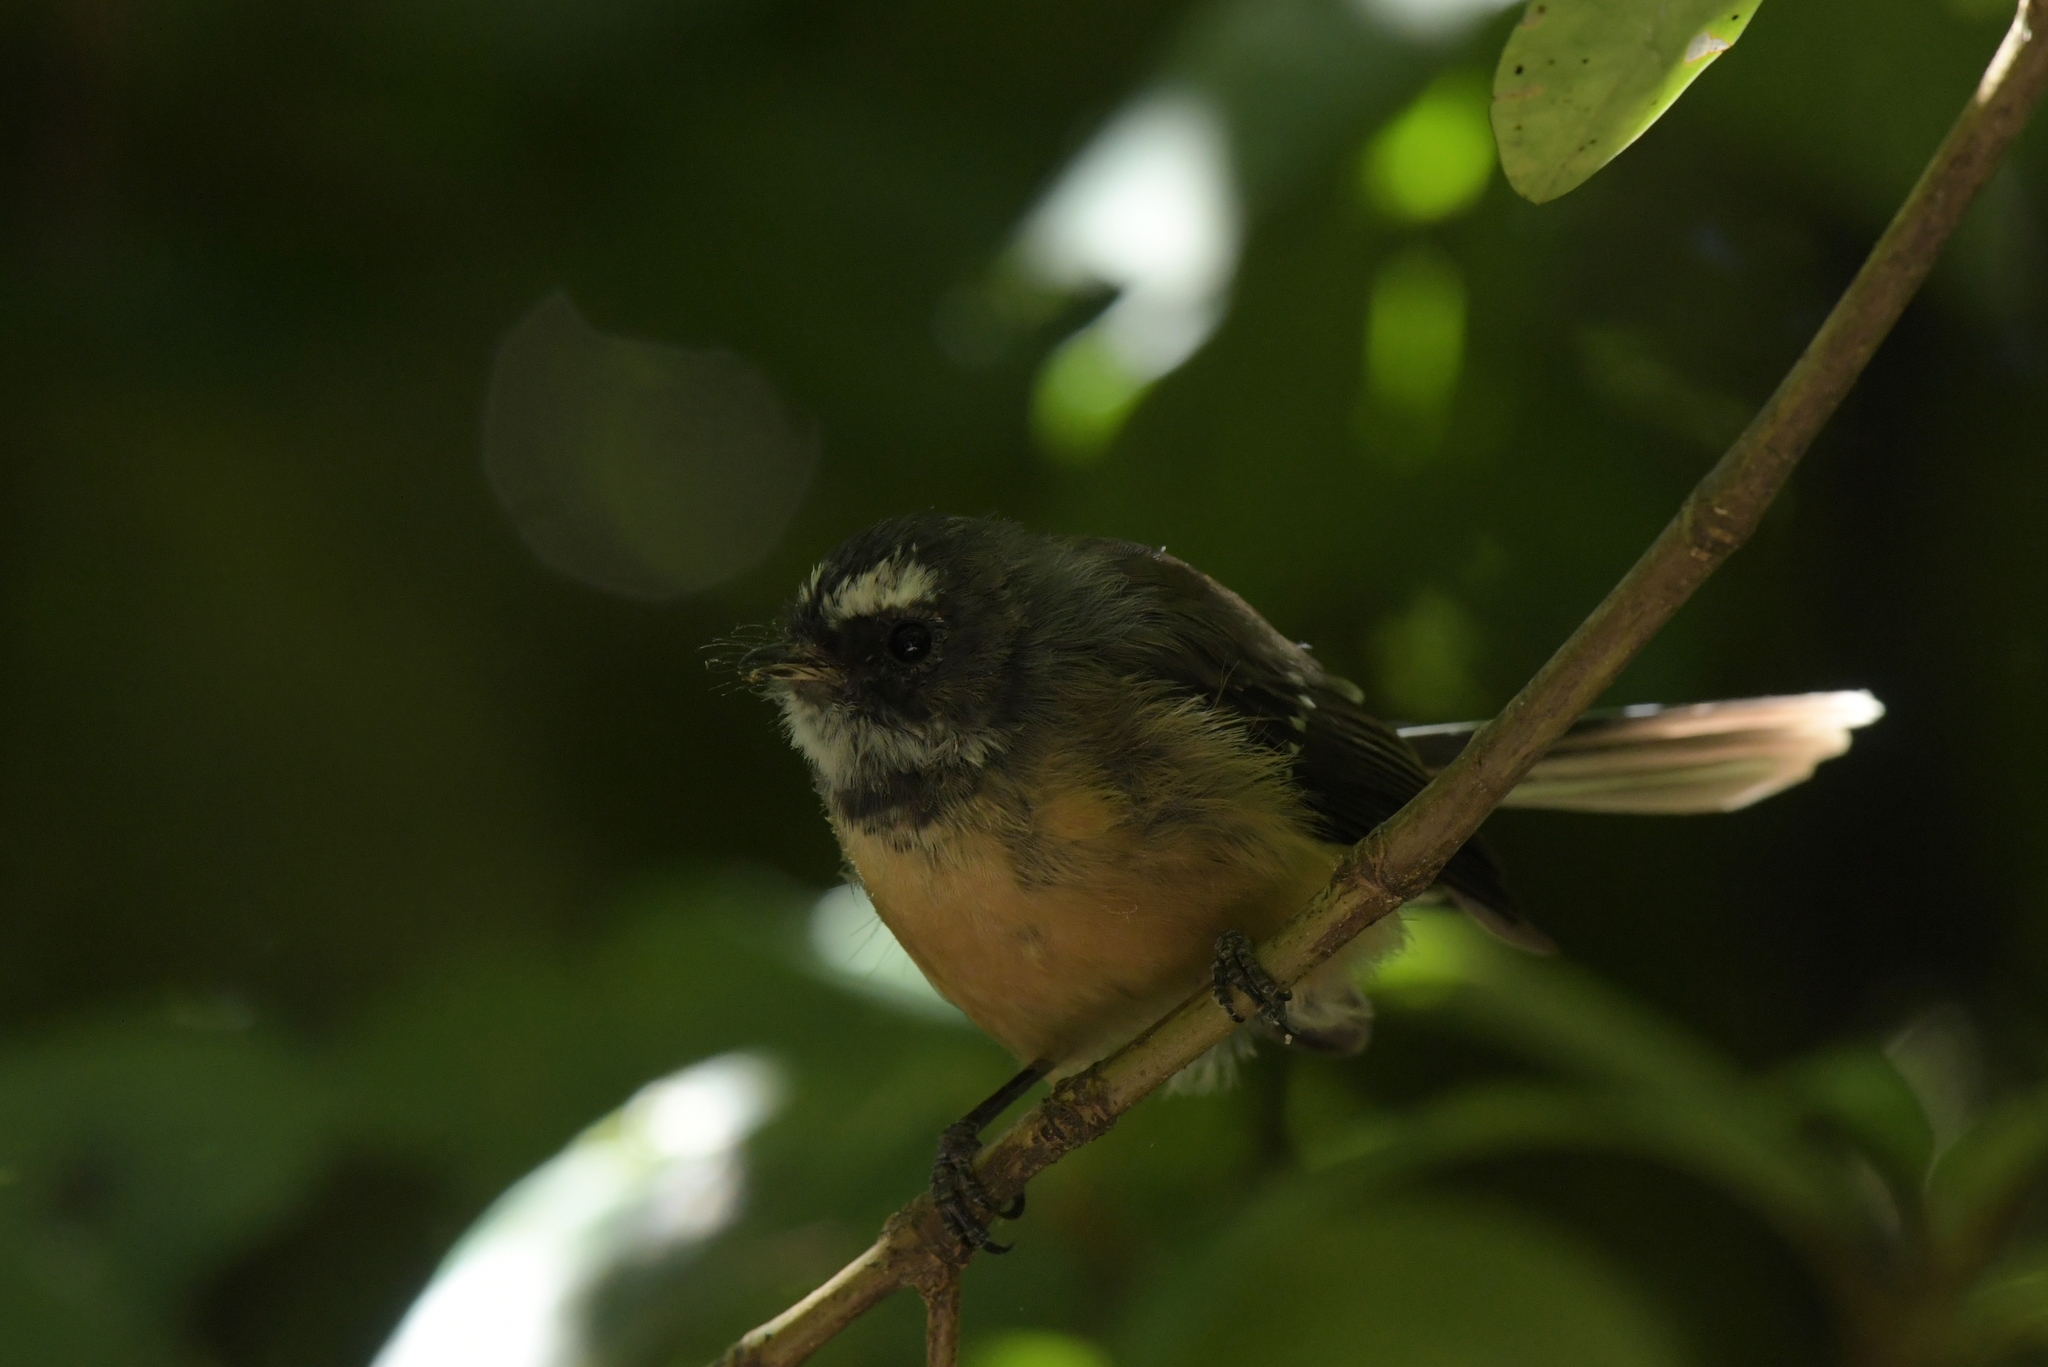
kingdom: Animalia
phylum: Chordata
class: Aves
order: Passeriformes
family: Rhipiduridae
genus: Rhipidura
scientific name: Rhipidura fuliginosa
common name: New zealand fantail
